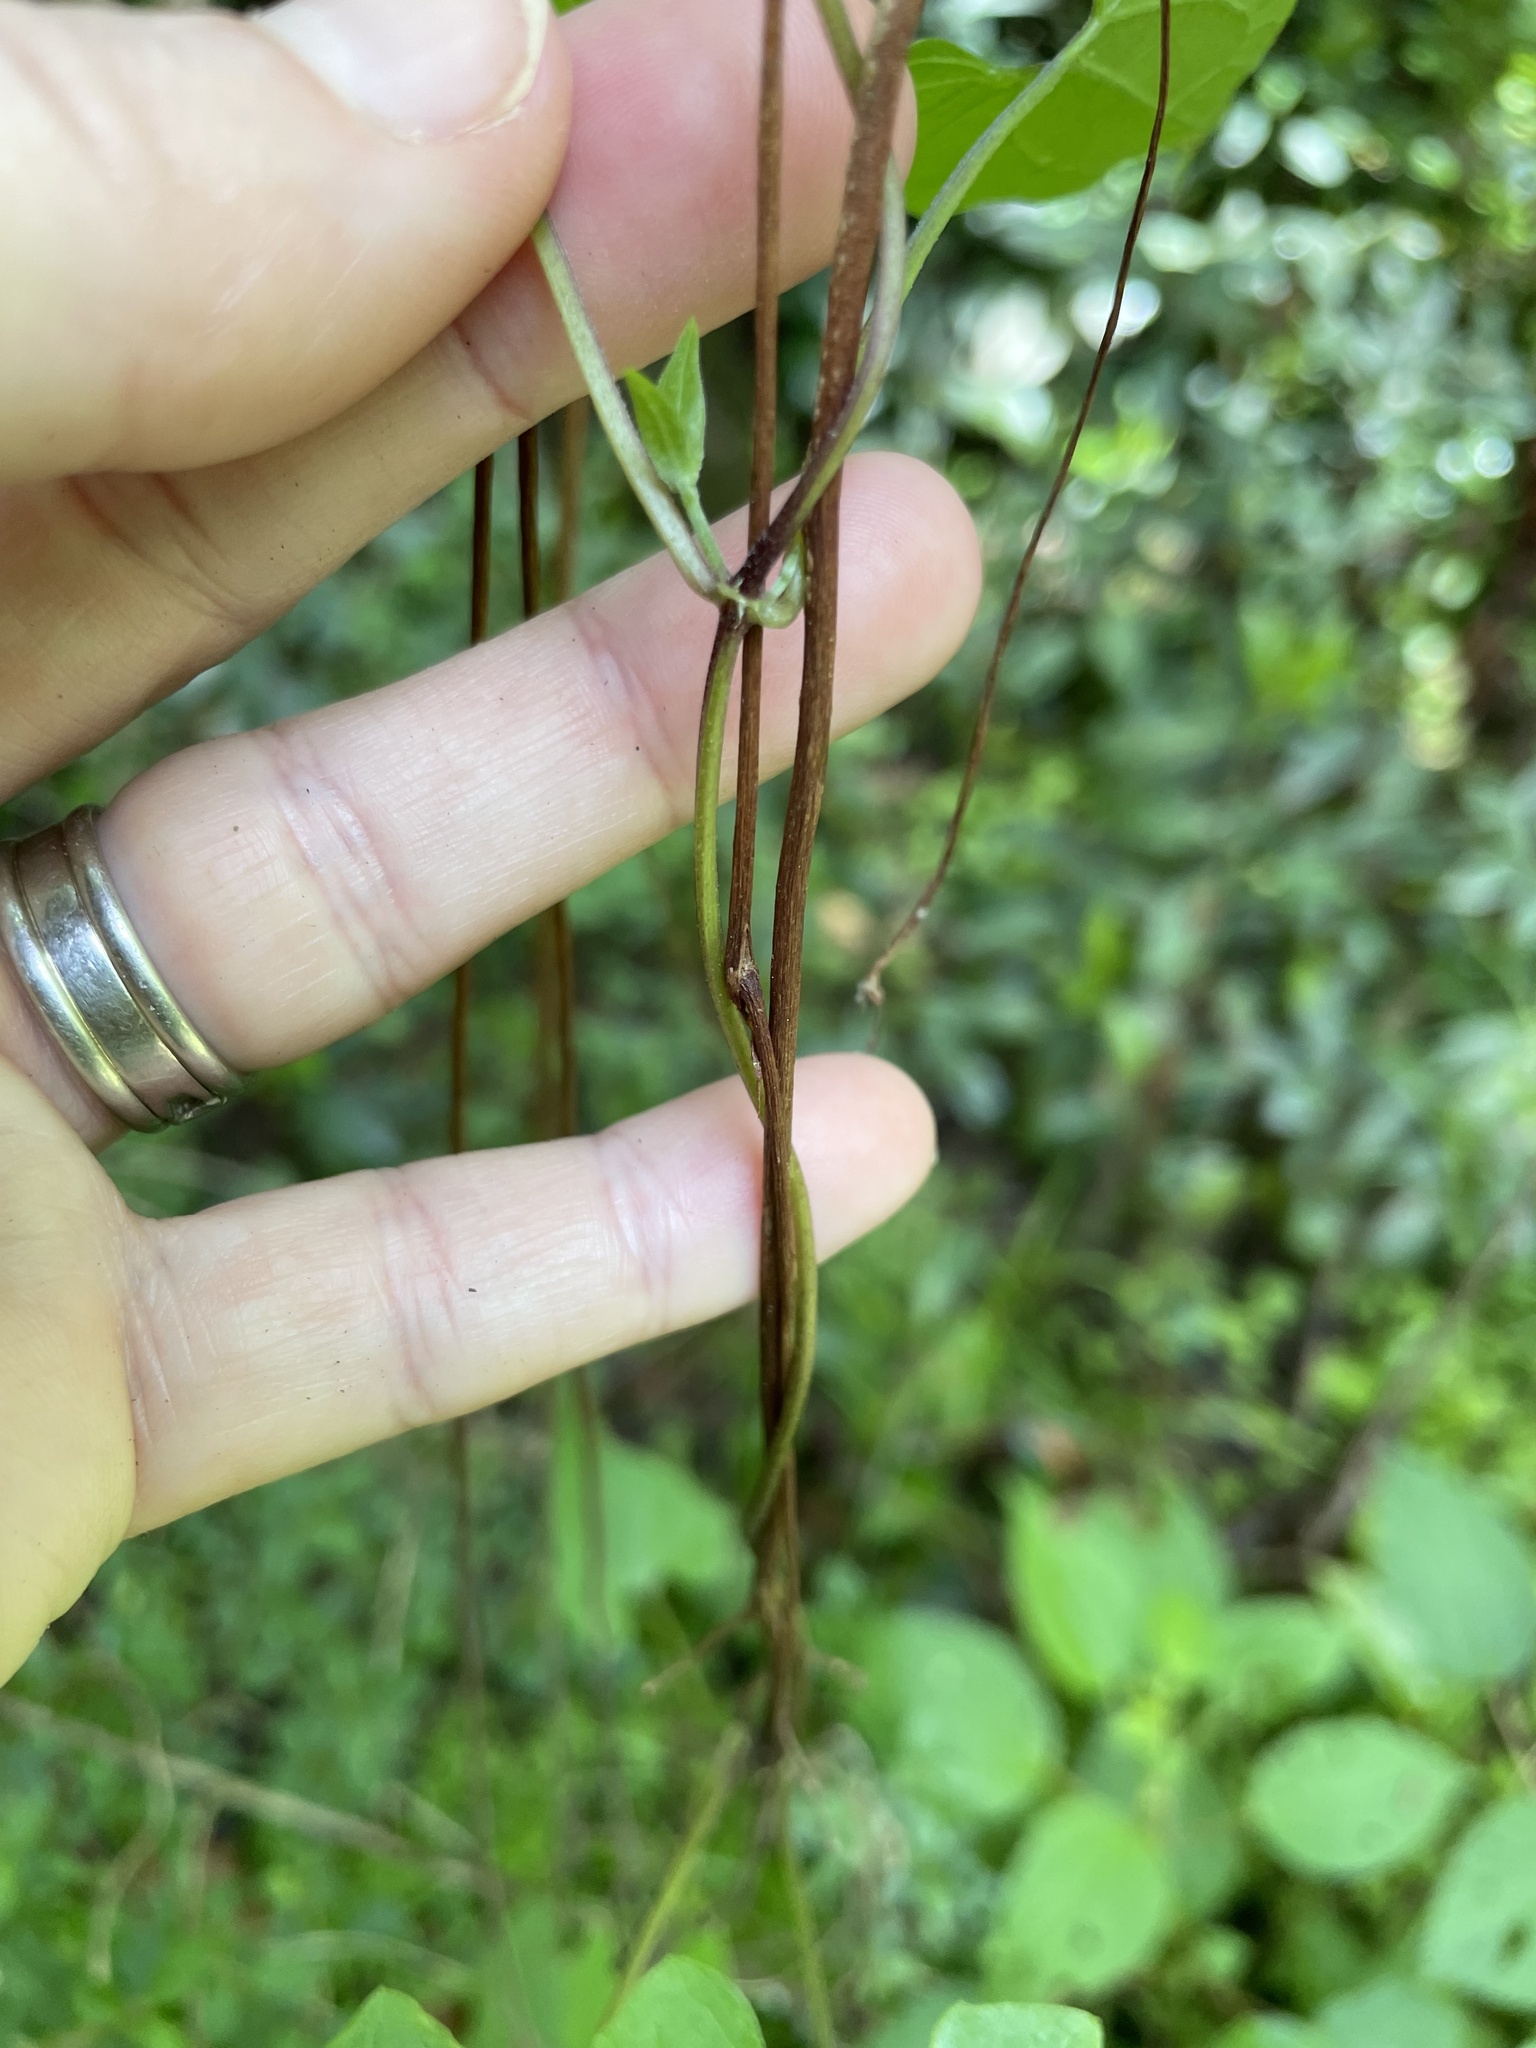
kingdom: Plantae
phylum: Tracheophyta
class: Magnoliopsida
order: Asterales
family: Asteraceae
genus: Mikania
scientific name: Mikania scandens
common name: Climbing hempvine
